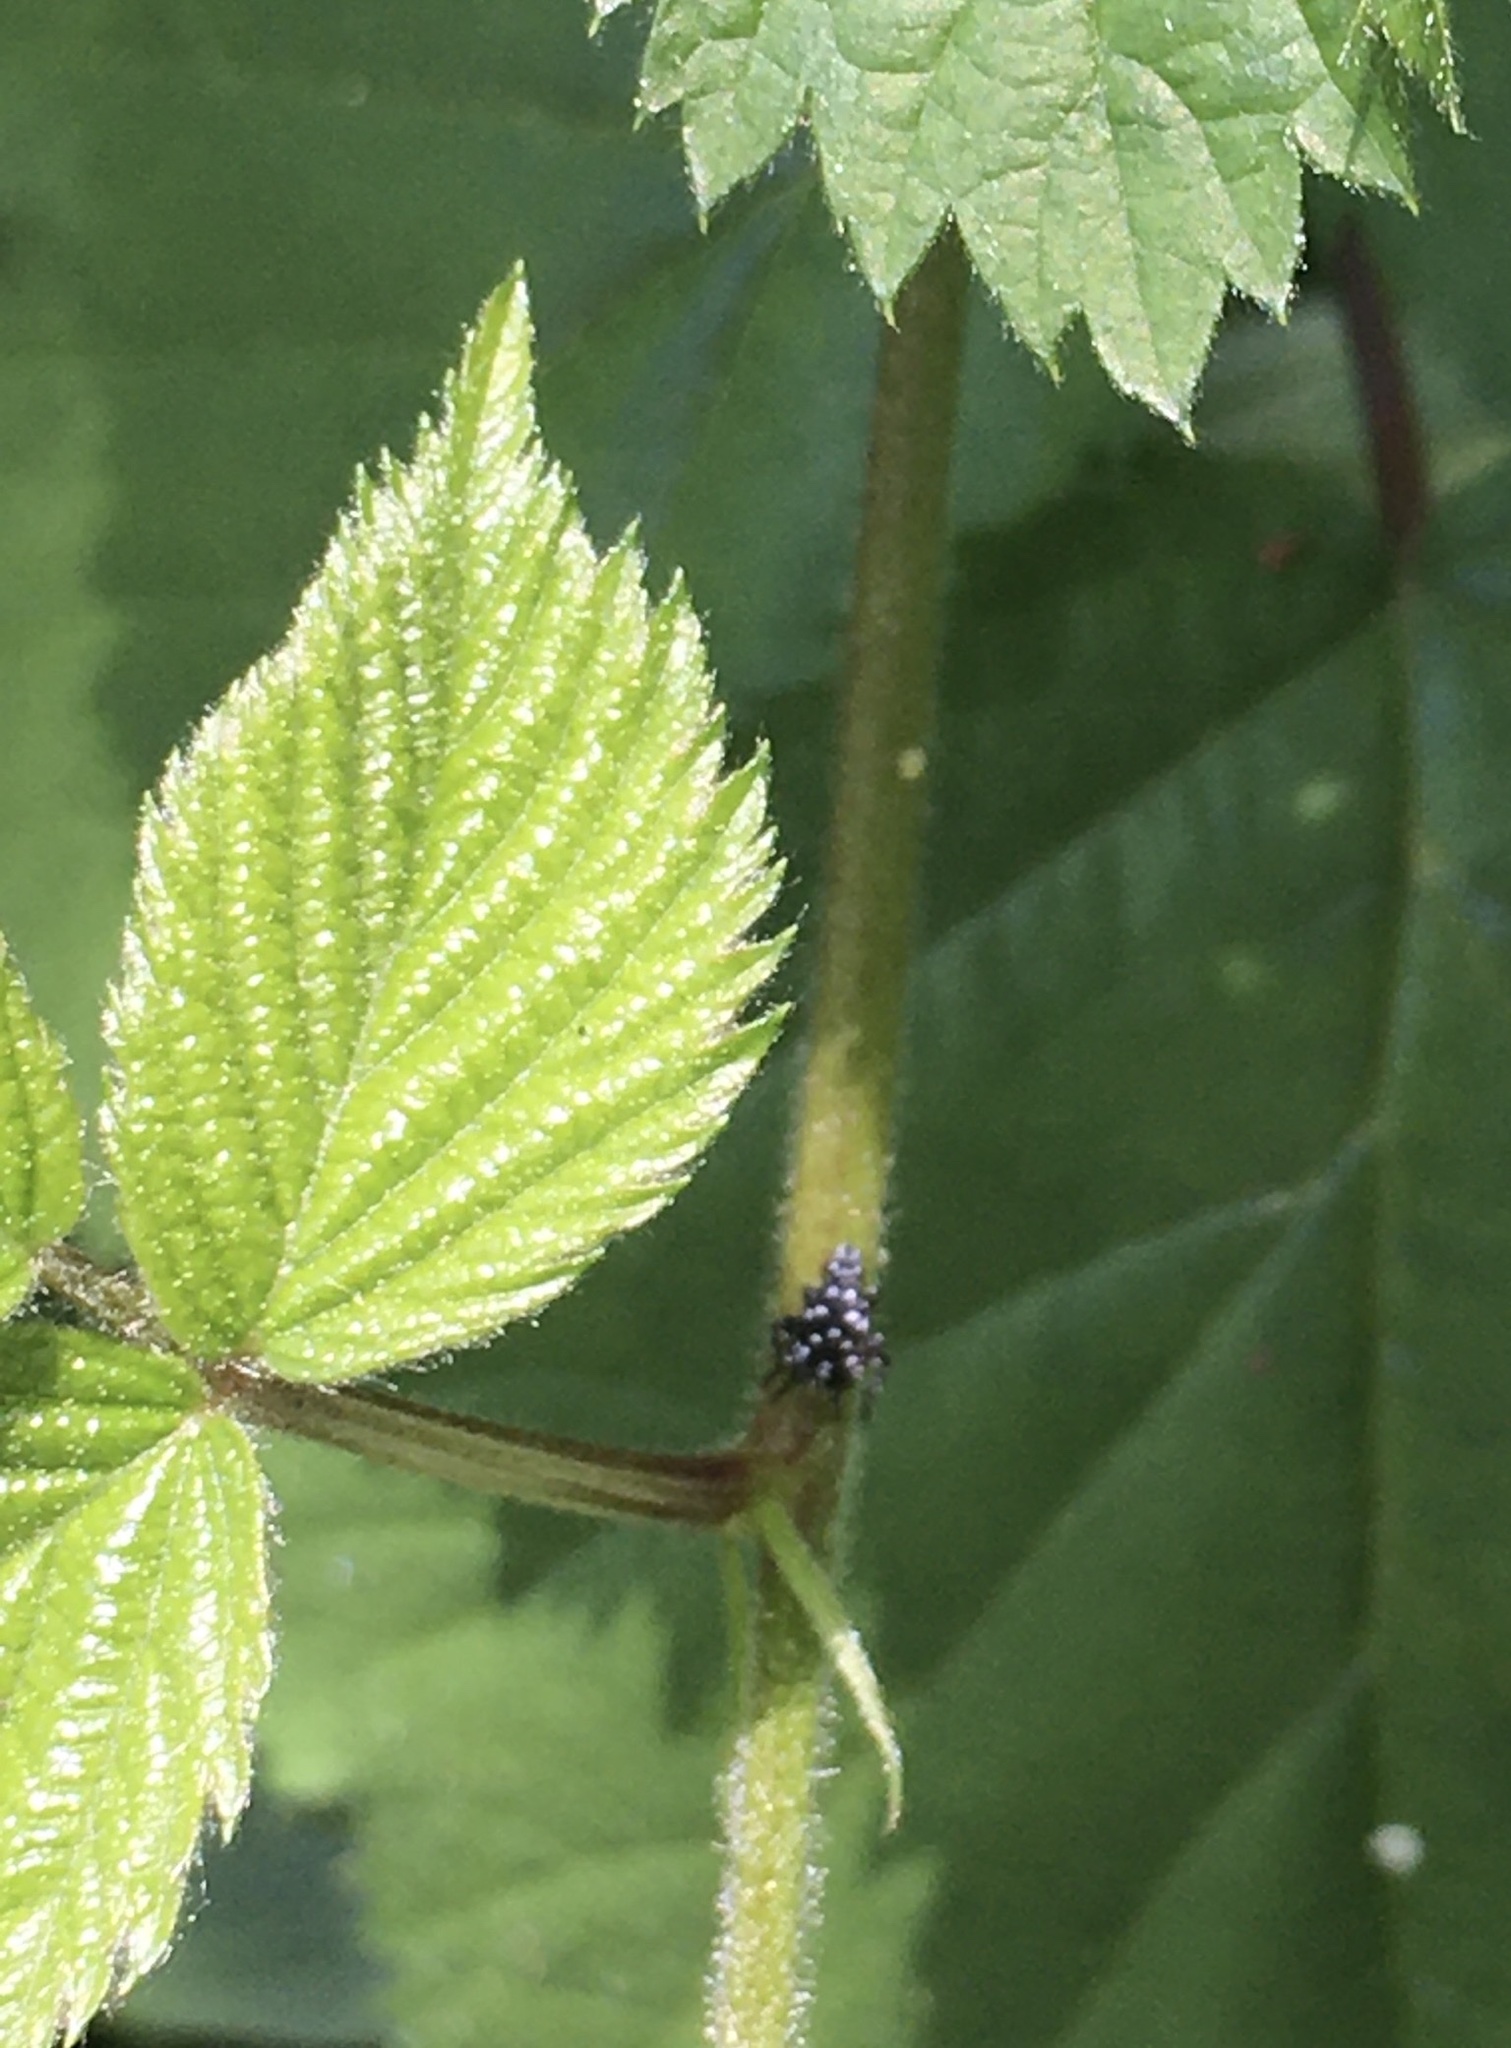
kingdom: Animalia
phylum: Arthropoda
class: Insecta
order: Hemiptera
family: Fulgoridae
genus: Lycorma
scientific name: Lycorma delicatula
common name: Spotted lanternfly
